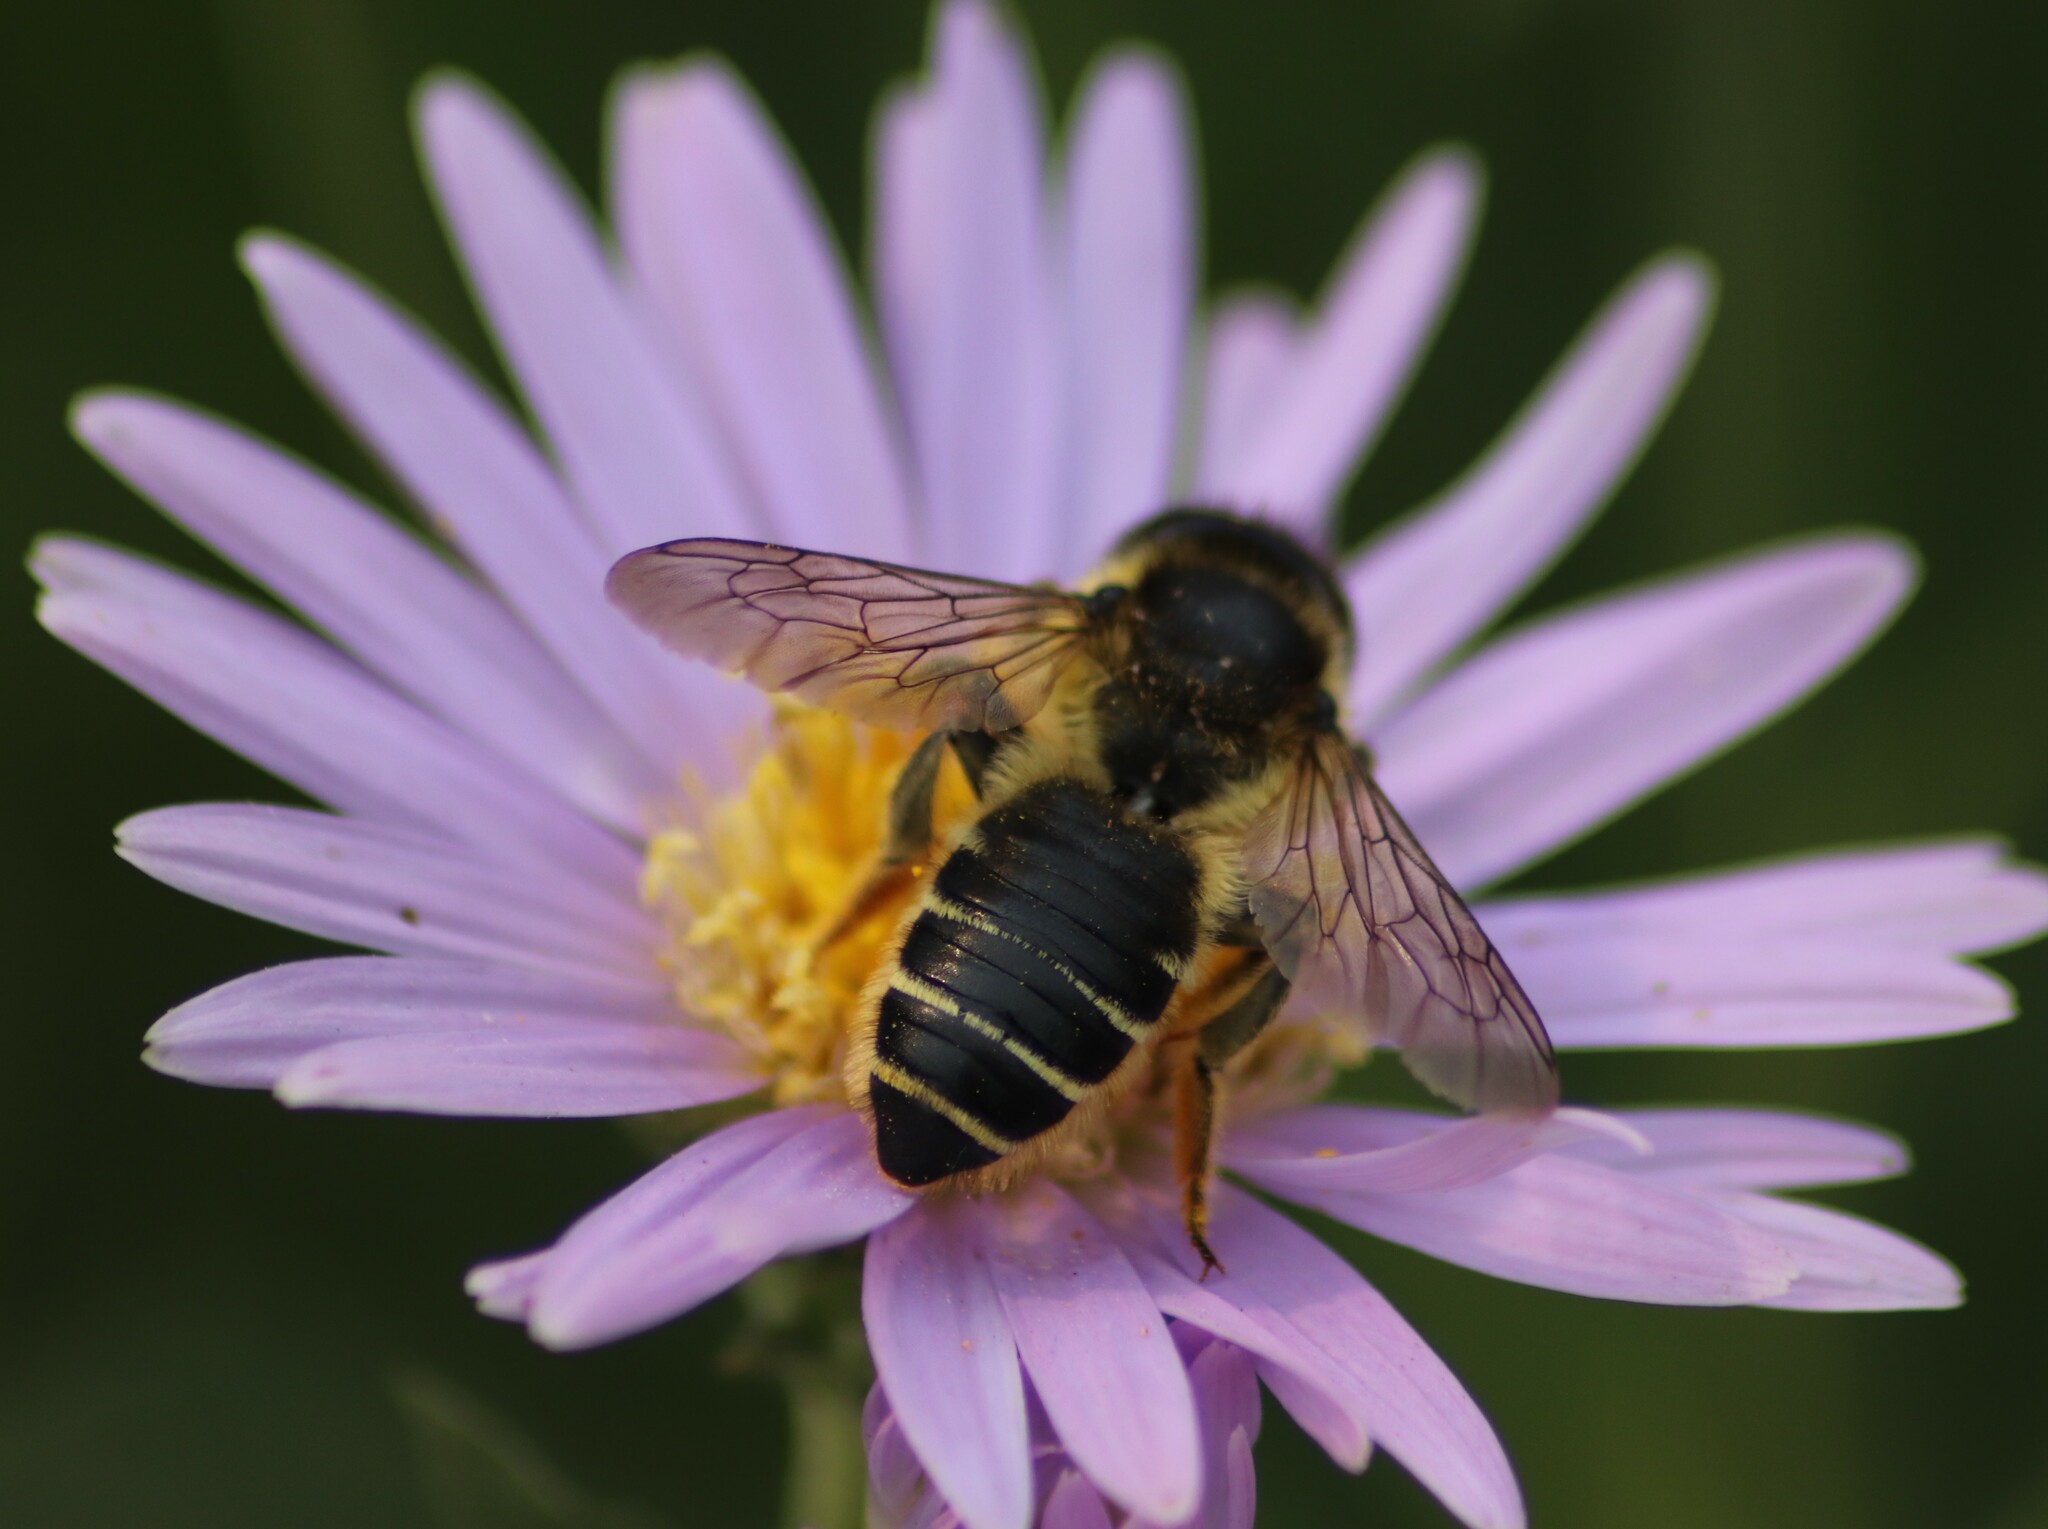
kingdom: Animalia
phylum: Arthropoda
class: Insecta
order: Hymenoptera
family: Megachilidae
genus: Megachile
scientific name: Megachile inermis
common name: Unarmed leafcutter bee
